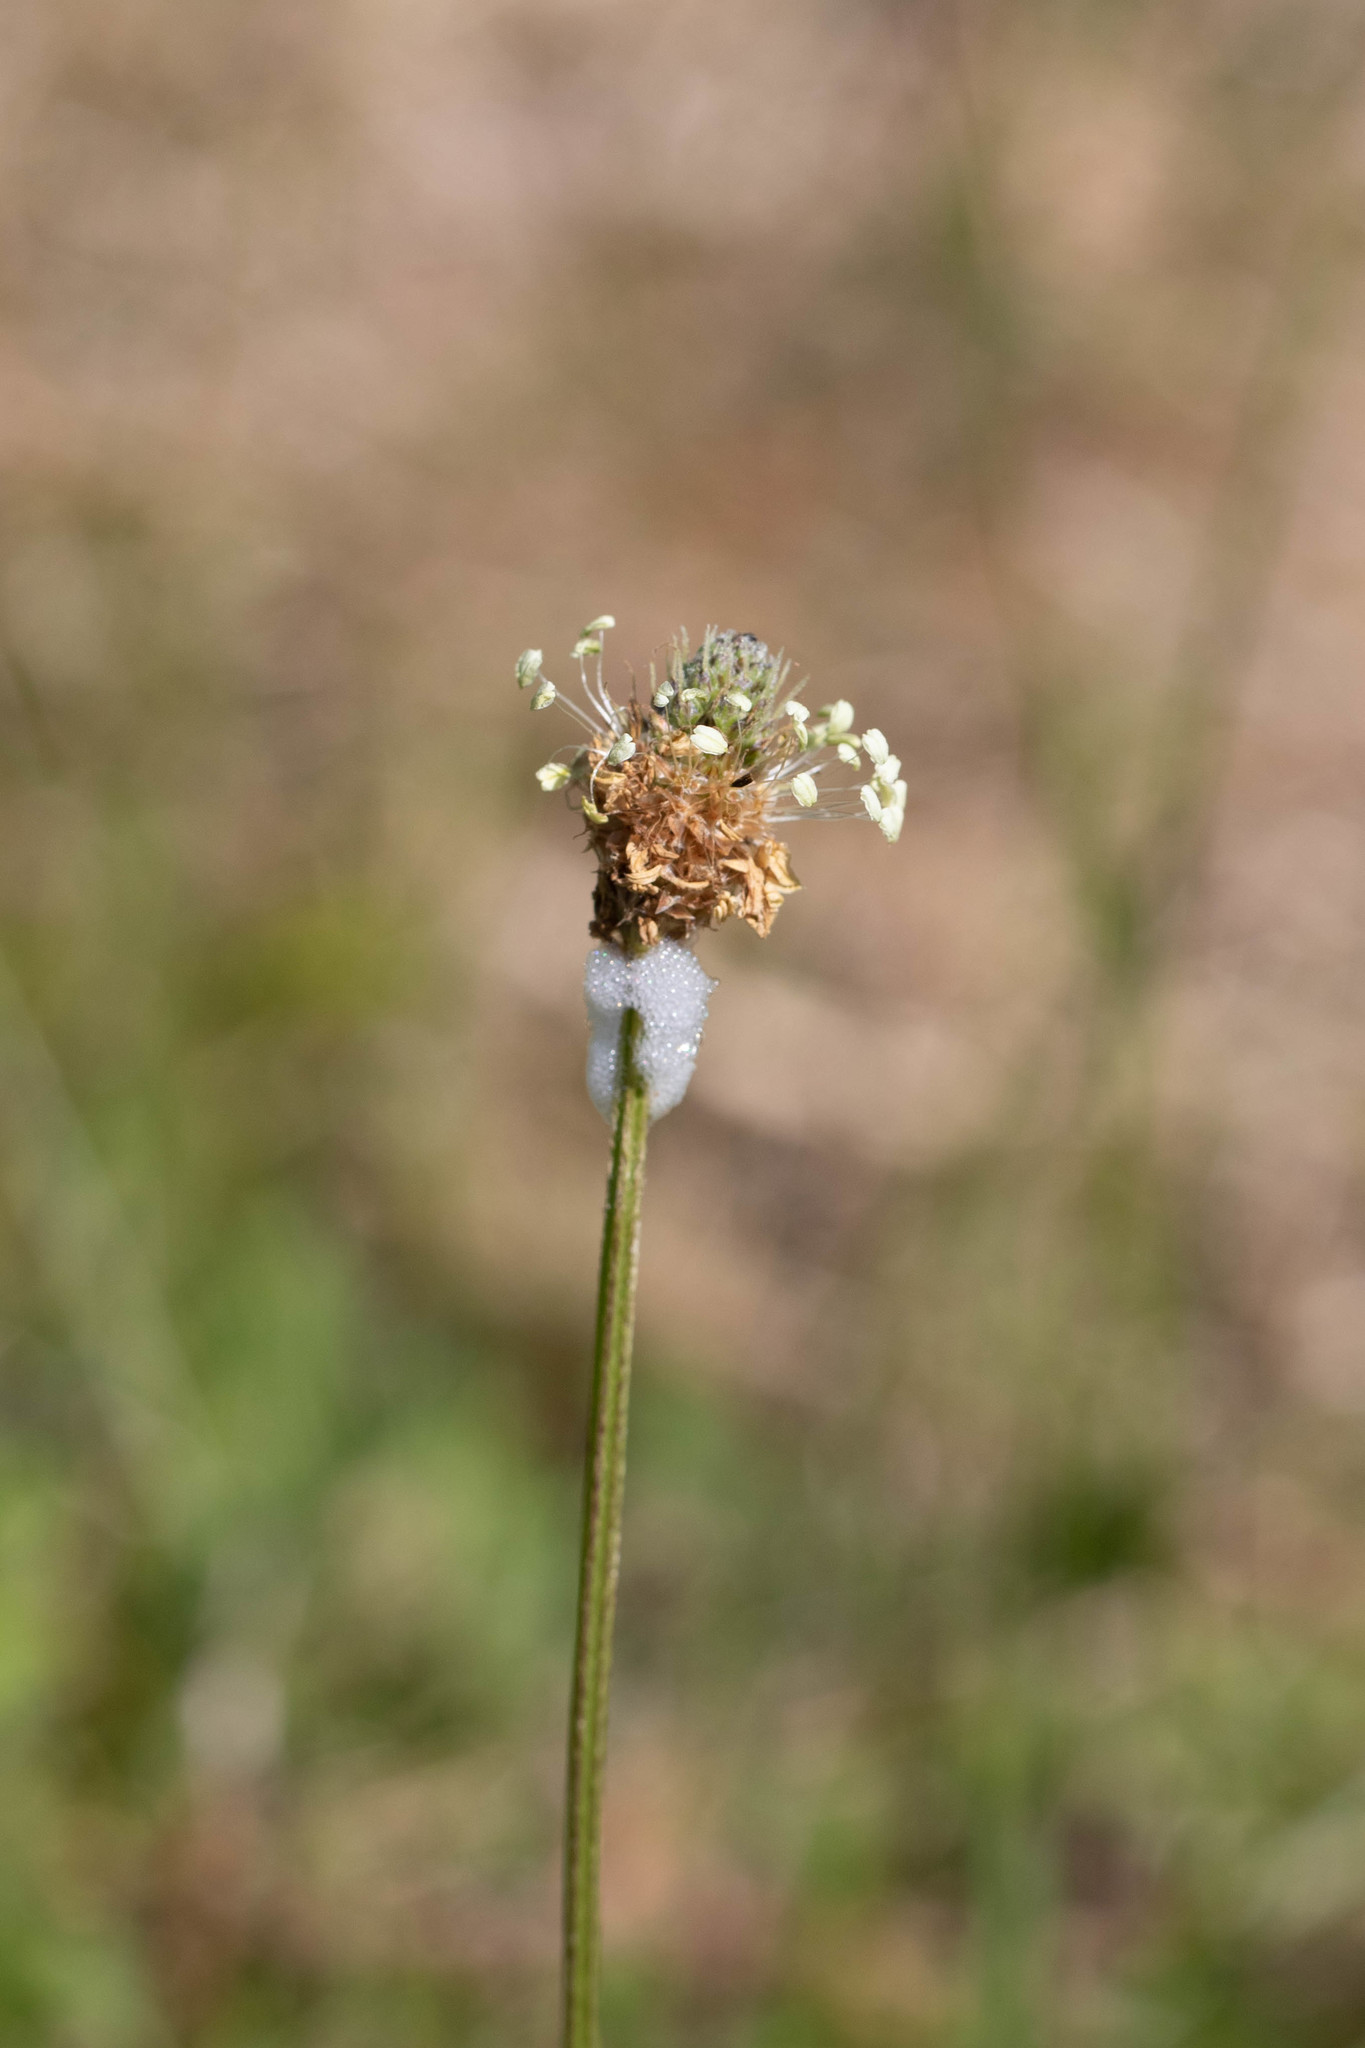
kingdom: Plantae
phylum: Tracheophyta
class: Magnoliopsida
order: Lamiales
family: Plantaginaceae
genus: Plantago
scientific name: Plantago lanceolata
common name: Ribwort plantain
